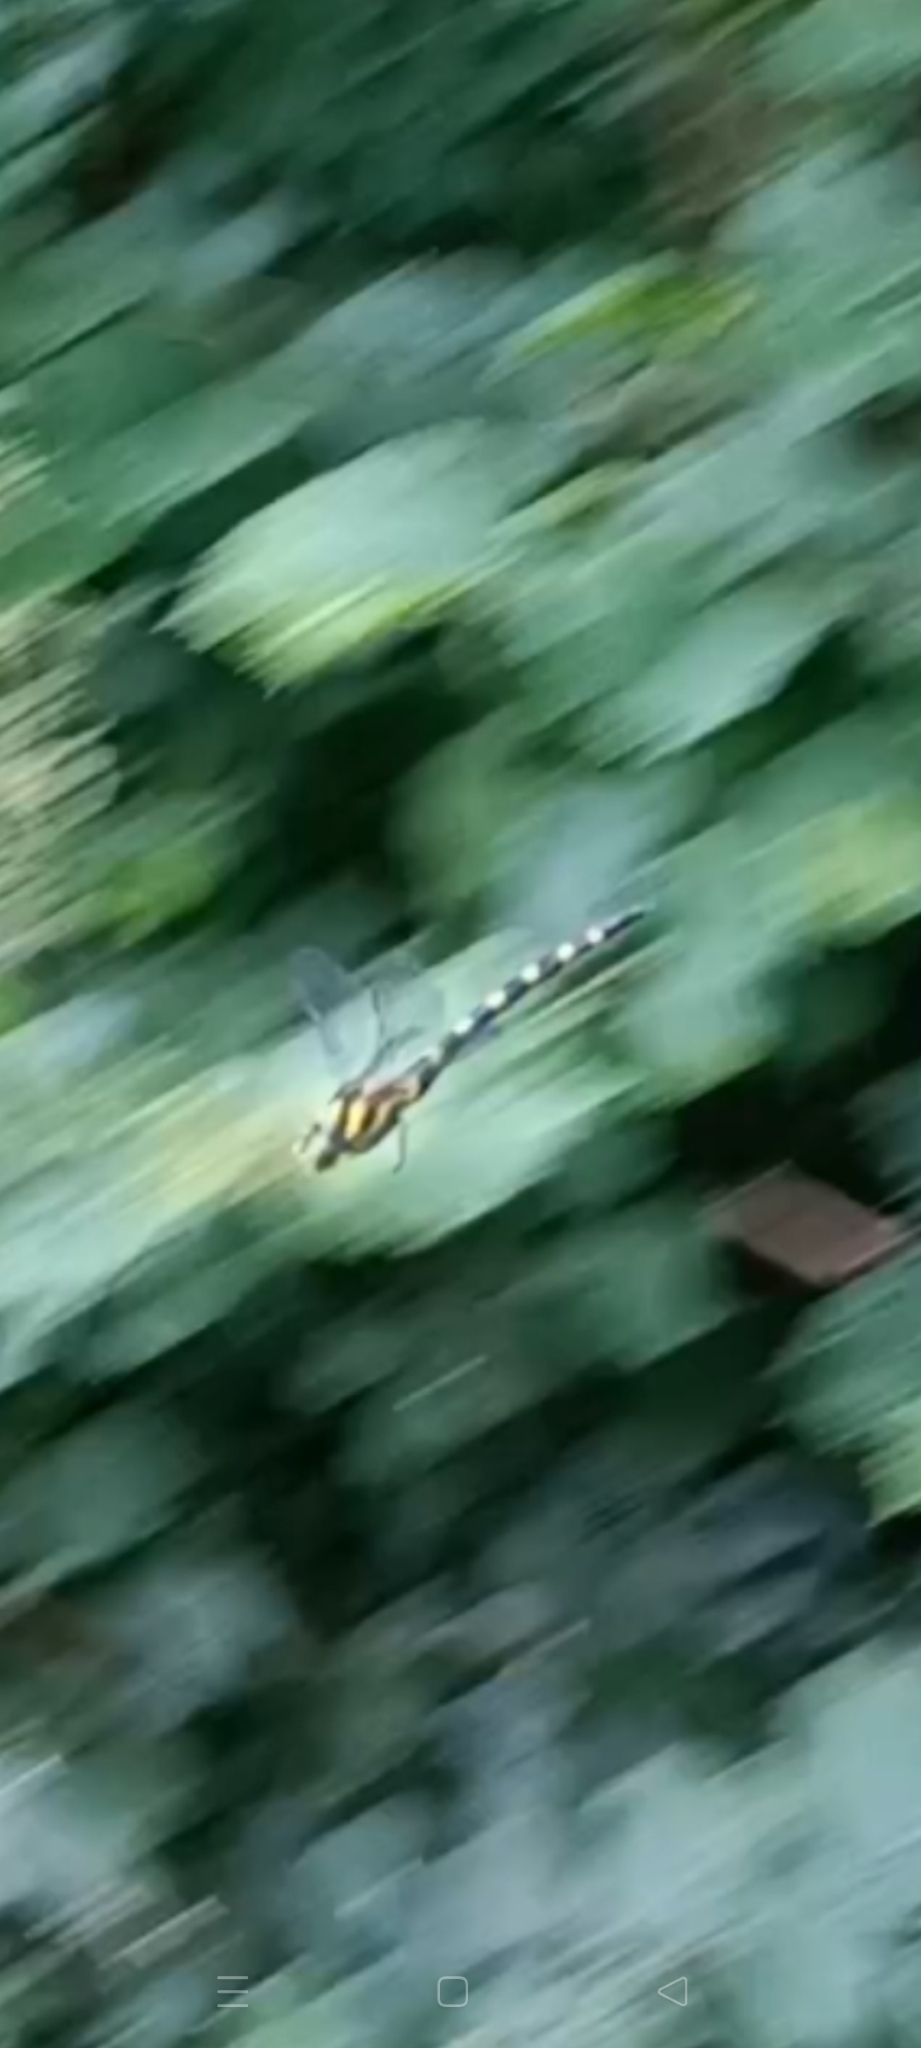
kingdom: Animalia
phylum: Arthropoda
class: Insecta
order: Odonata
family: Cordulegastridae
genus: Cordulegaster
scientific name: Cordulegaster bidentata
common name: Sombre goldenring
